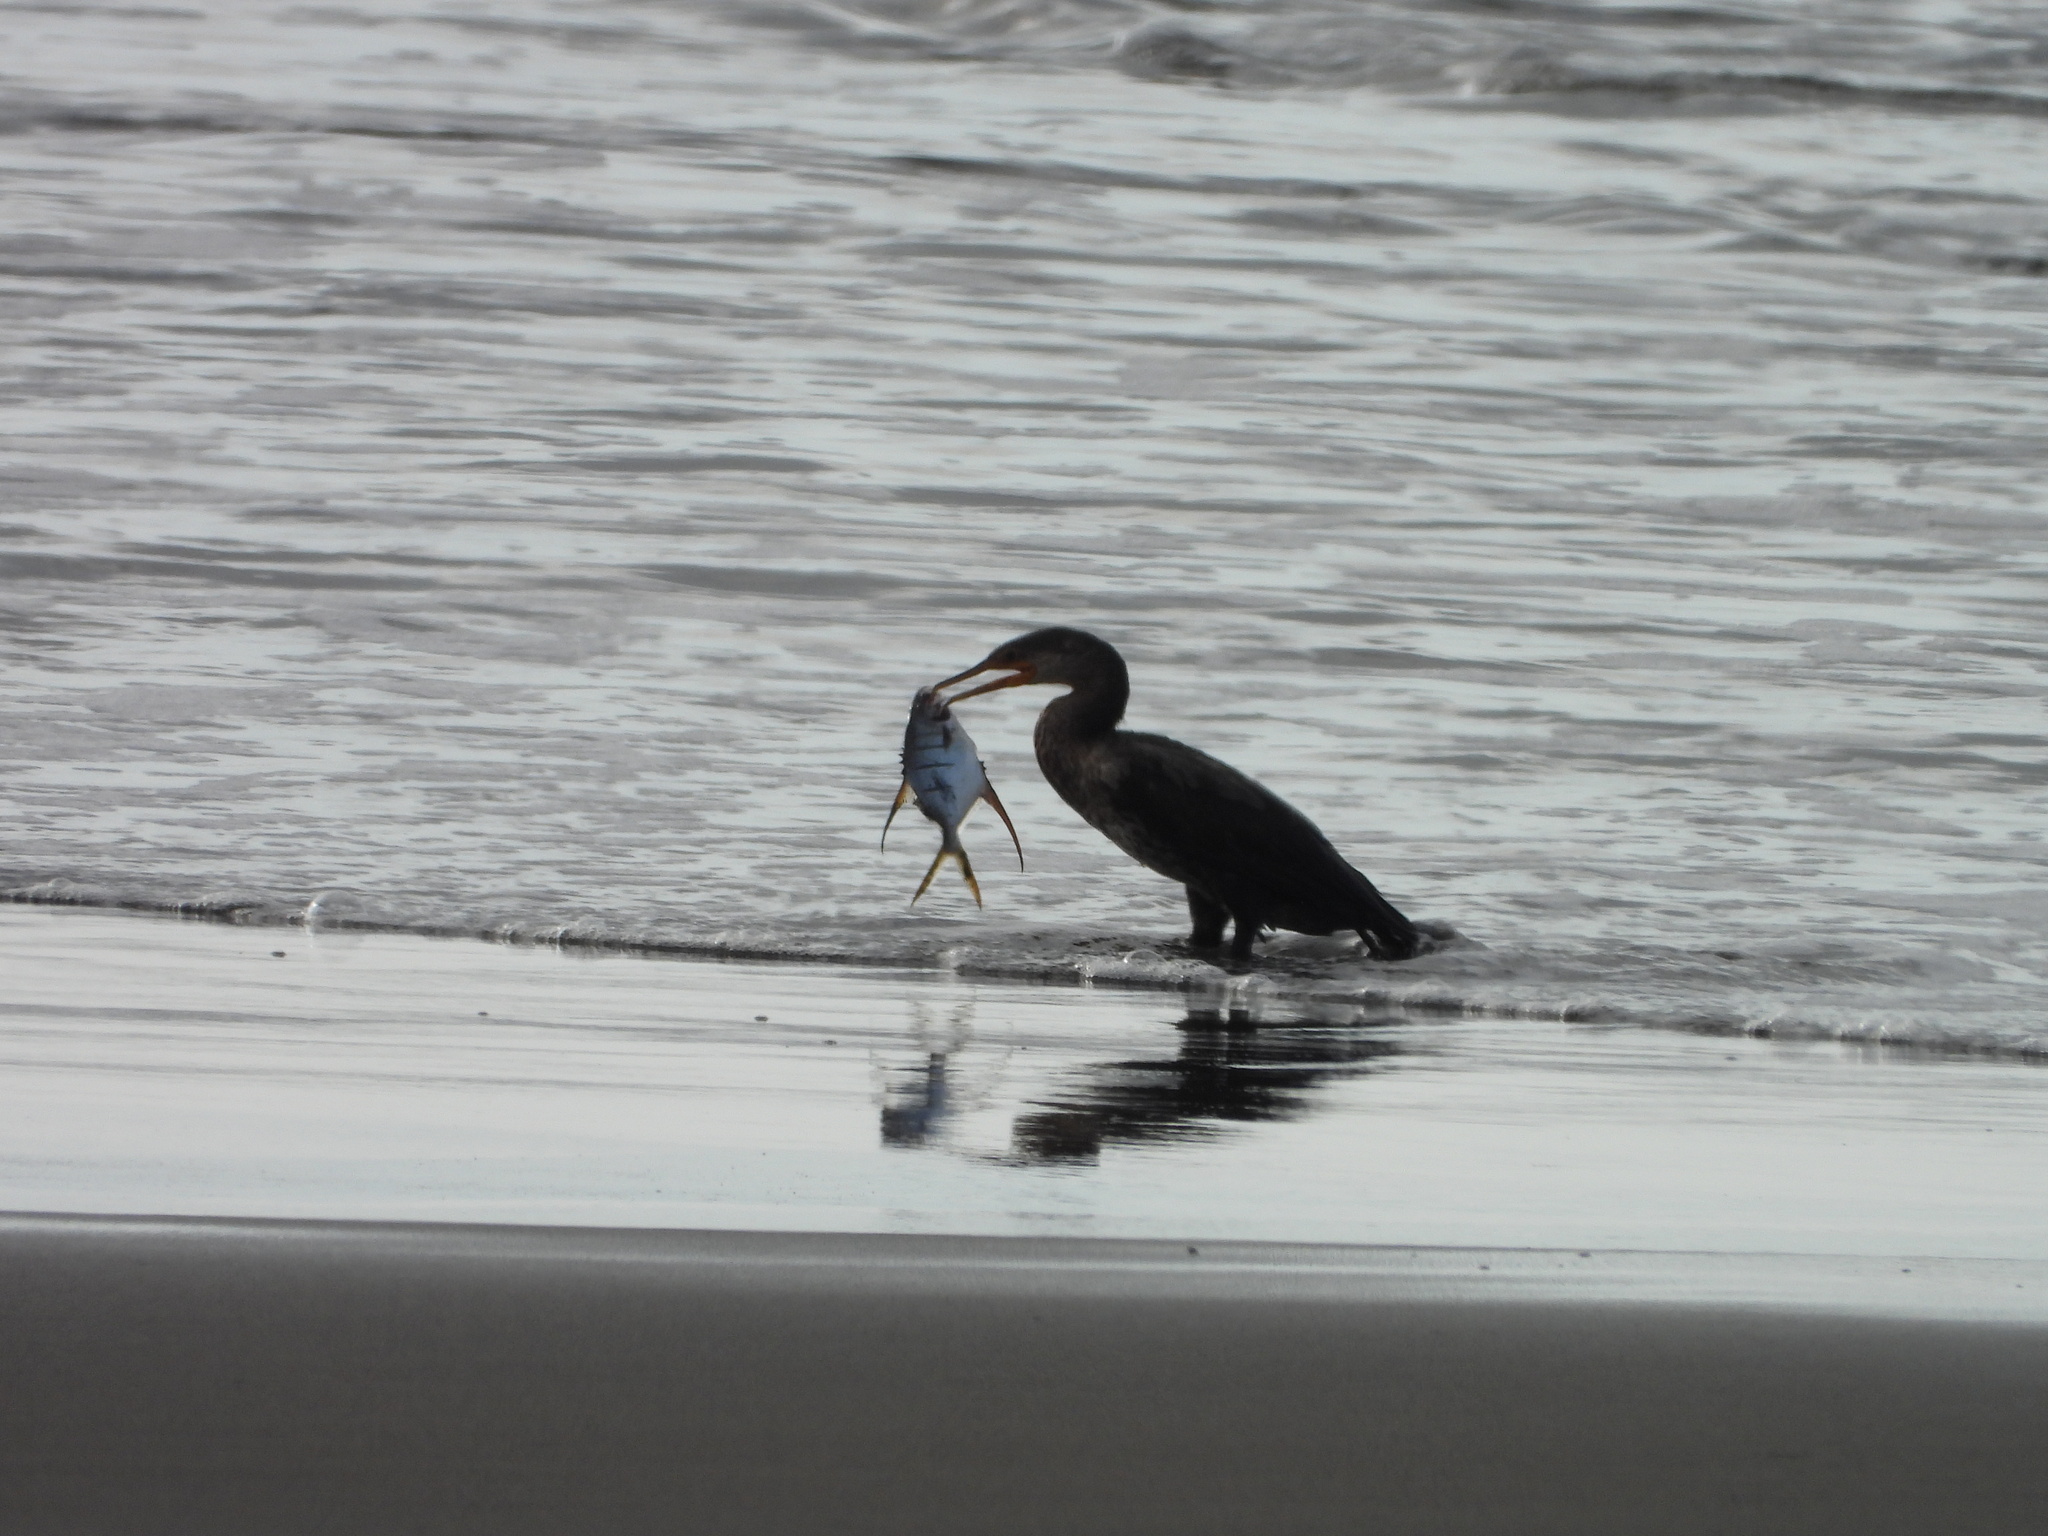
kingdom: Animalia
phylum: Chordata
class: Aves
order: Suliformes
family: Phalacrocoracidae
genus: Phalacrocorax
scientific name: Phalacrocorax brasilianus
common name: Neotropic cormorant
